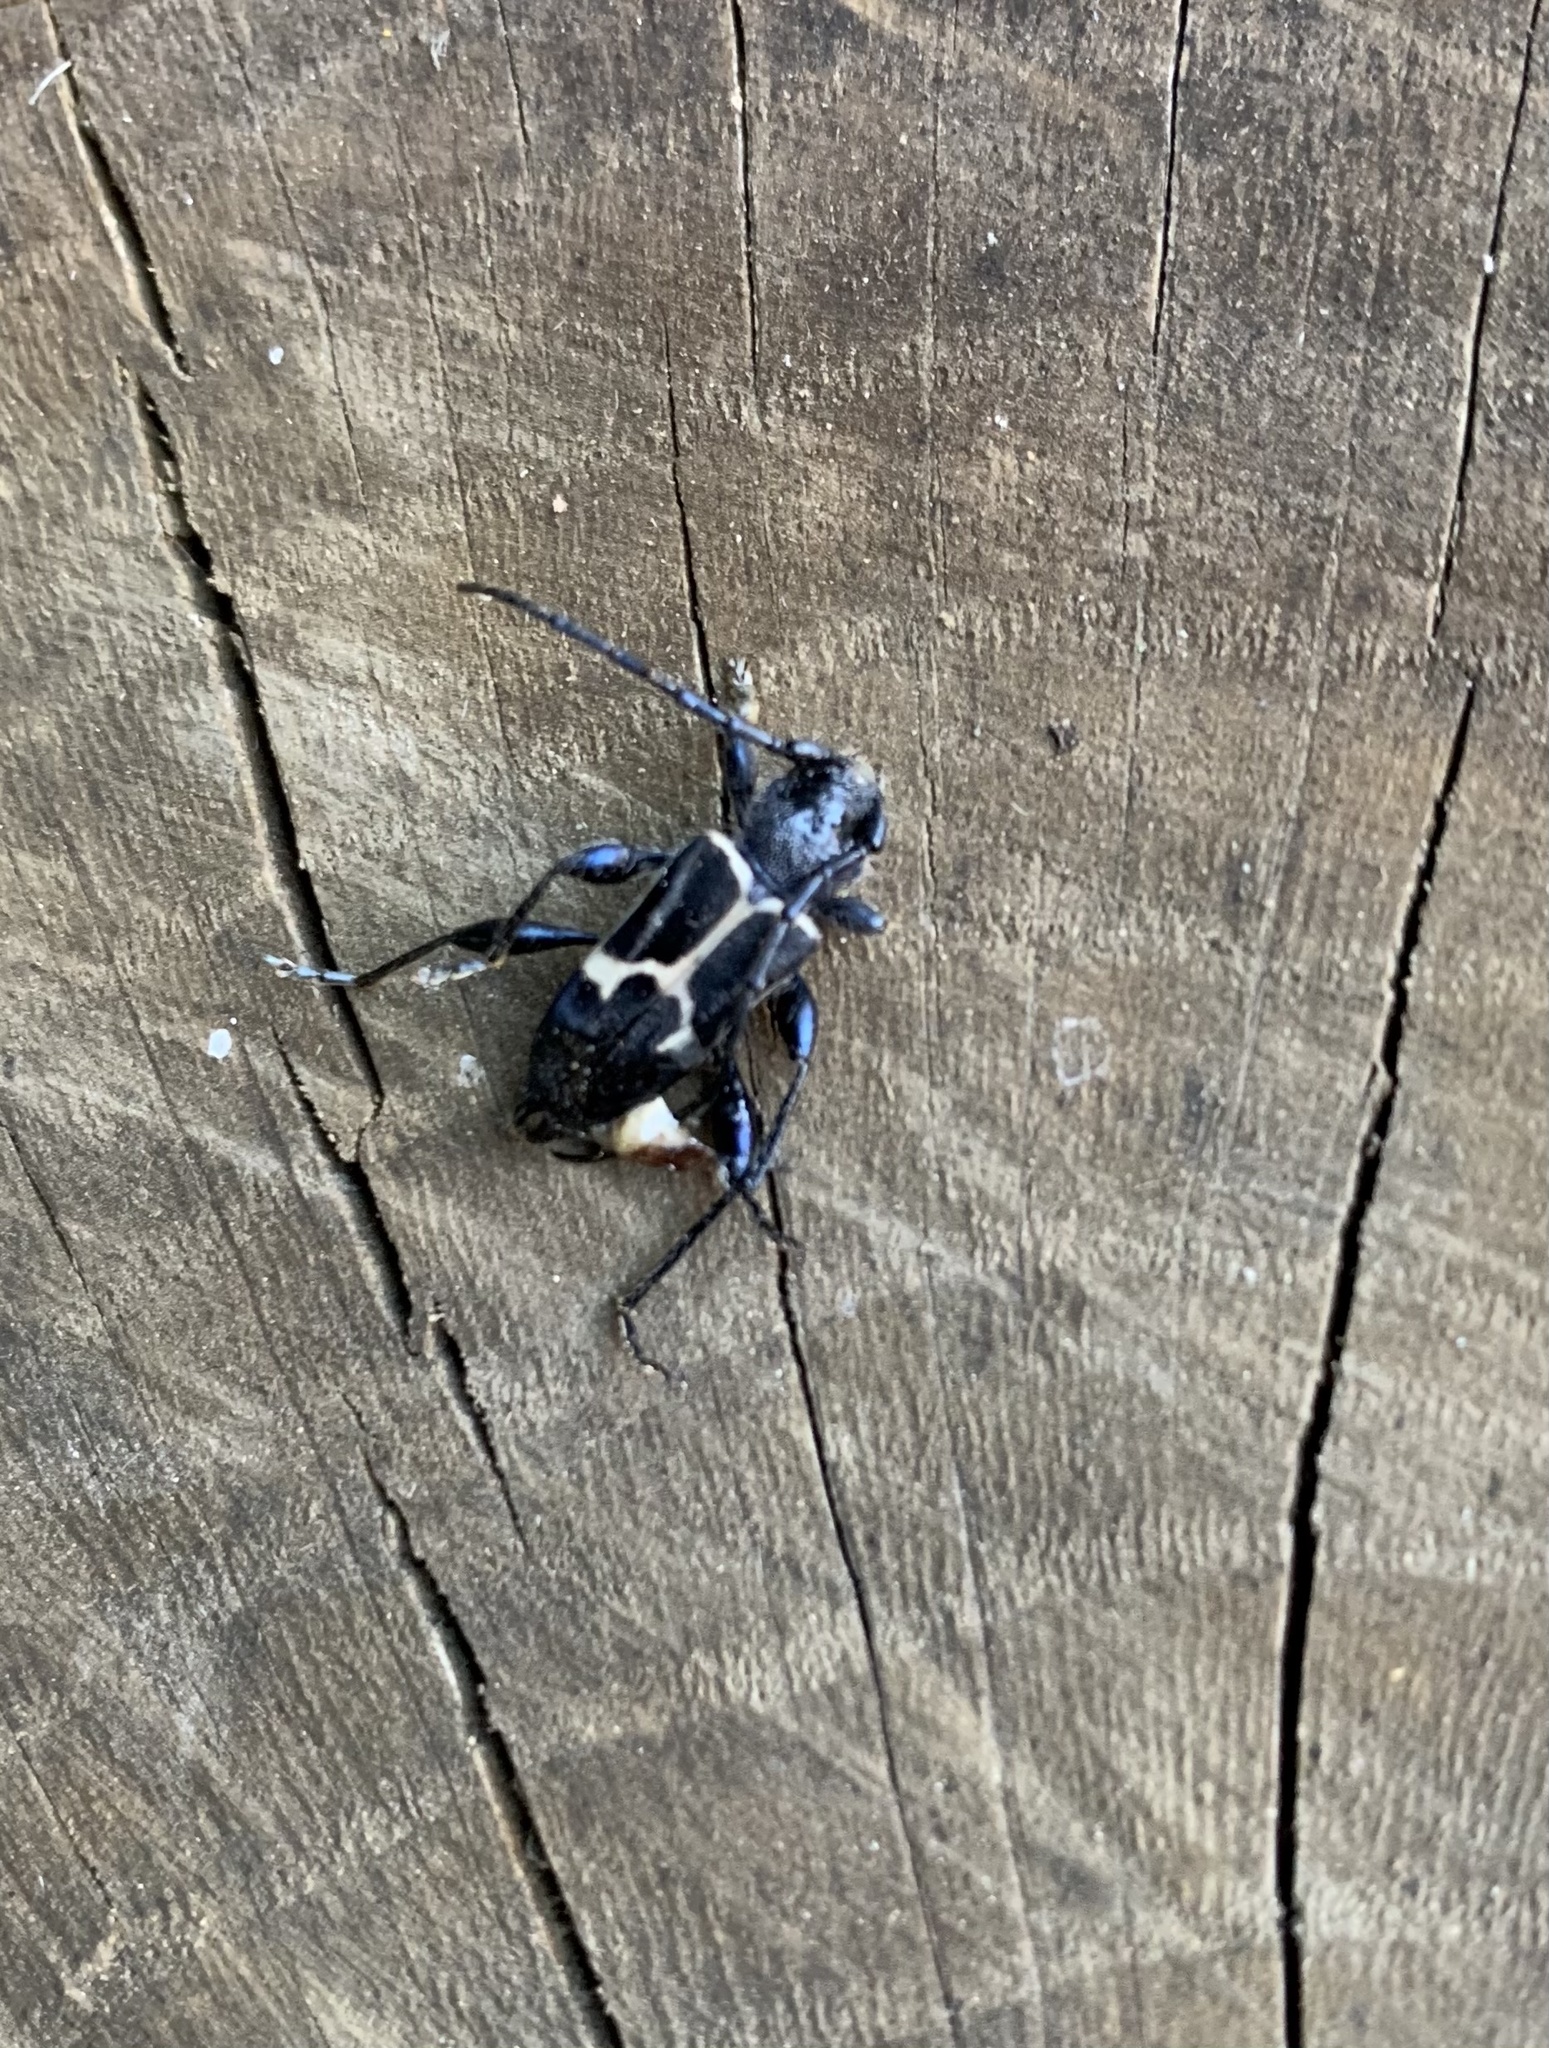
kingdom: Animalia
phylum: Arthropoda
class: Insecta
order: Coleoptera
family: Cerambycidae
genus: Calydon
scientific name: Calydon submetallicum
